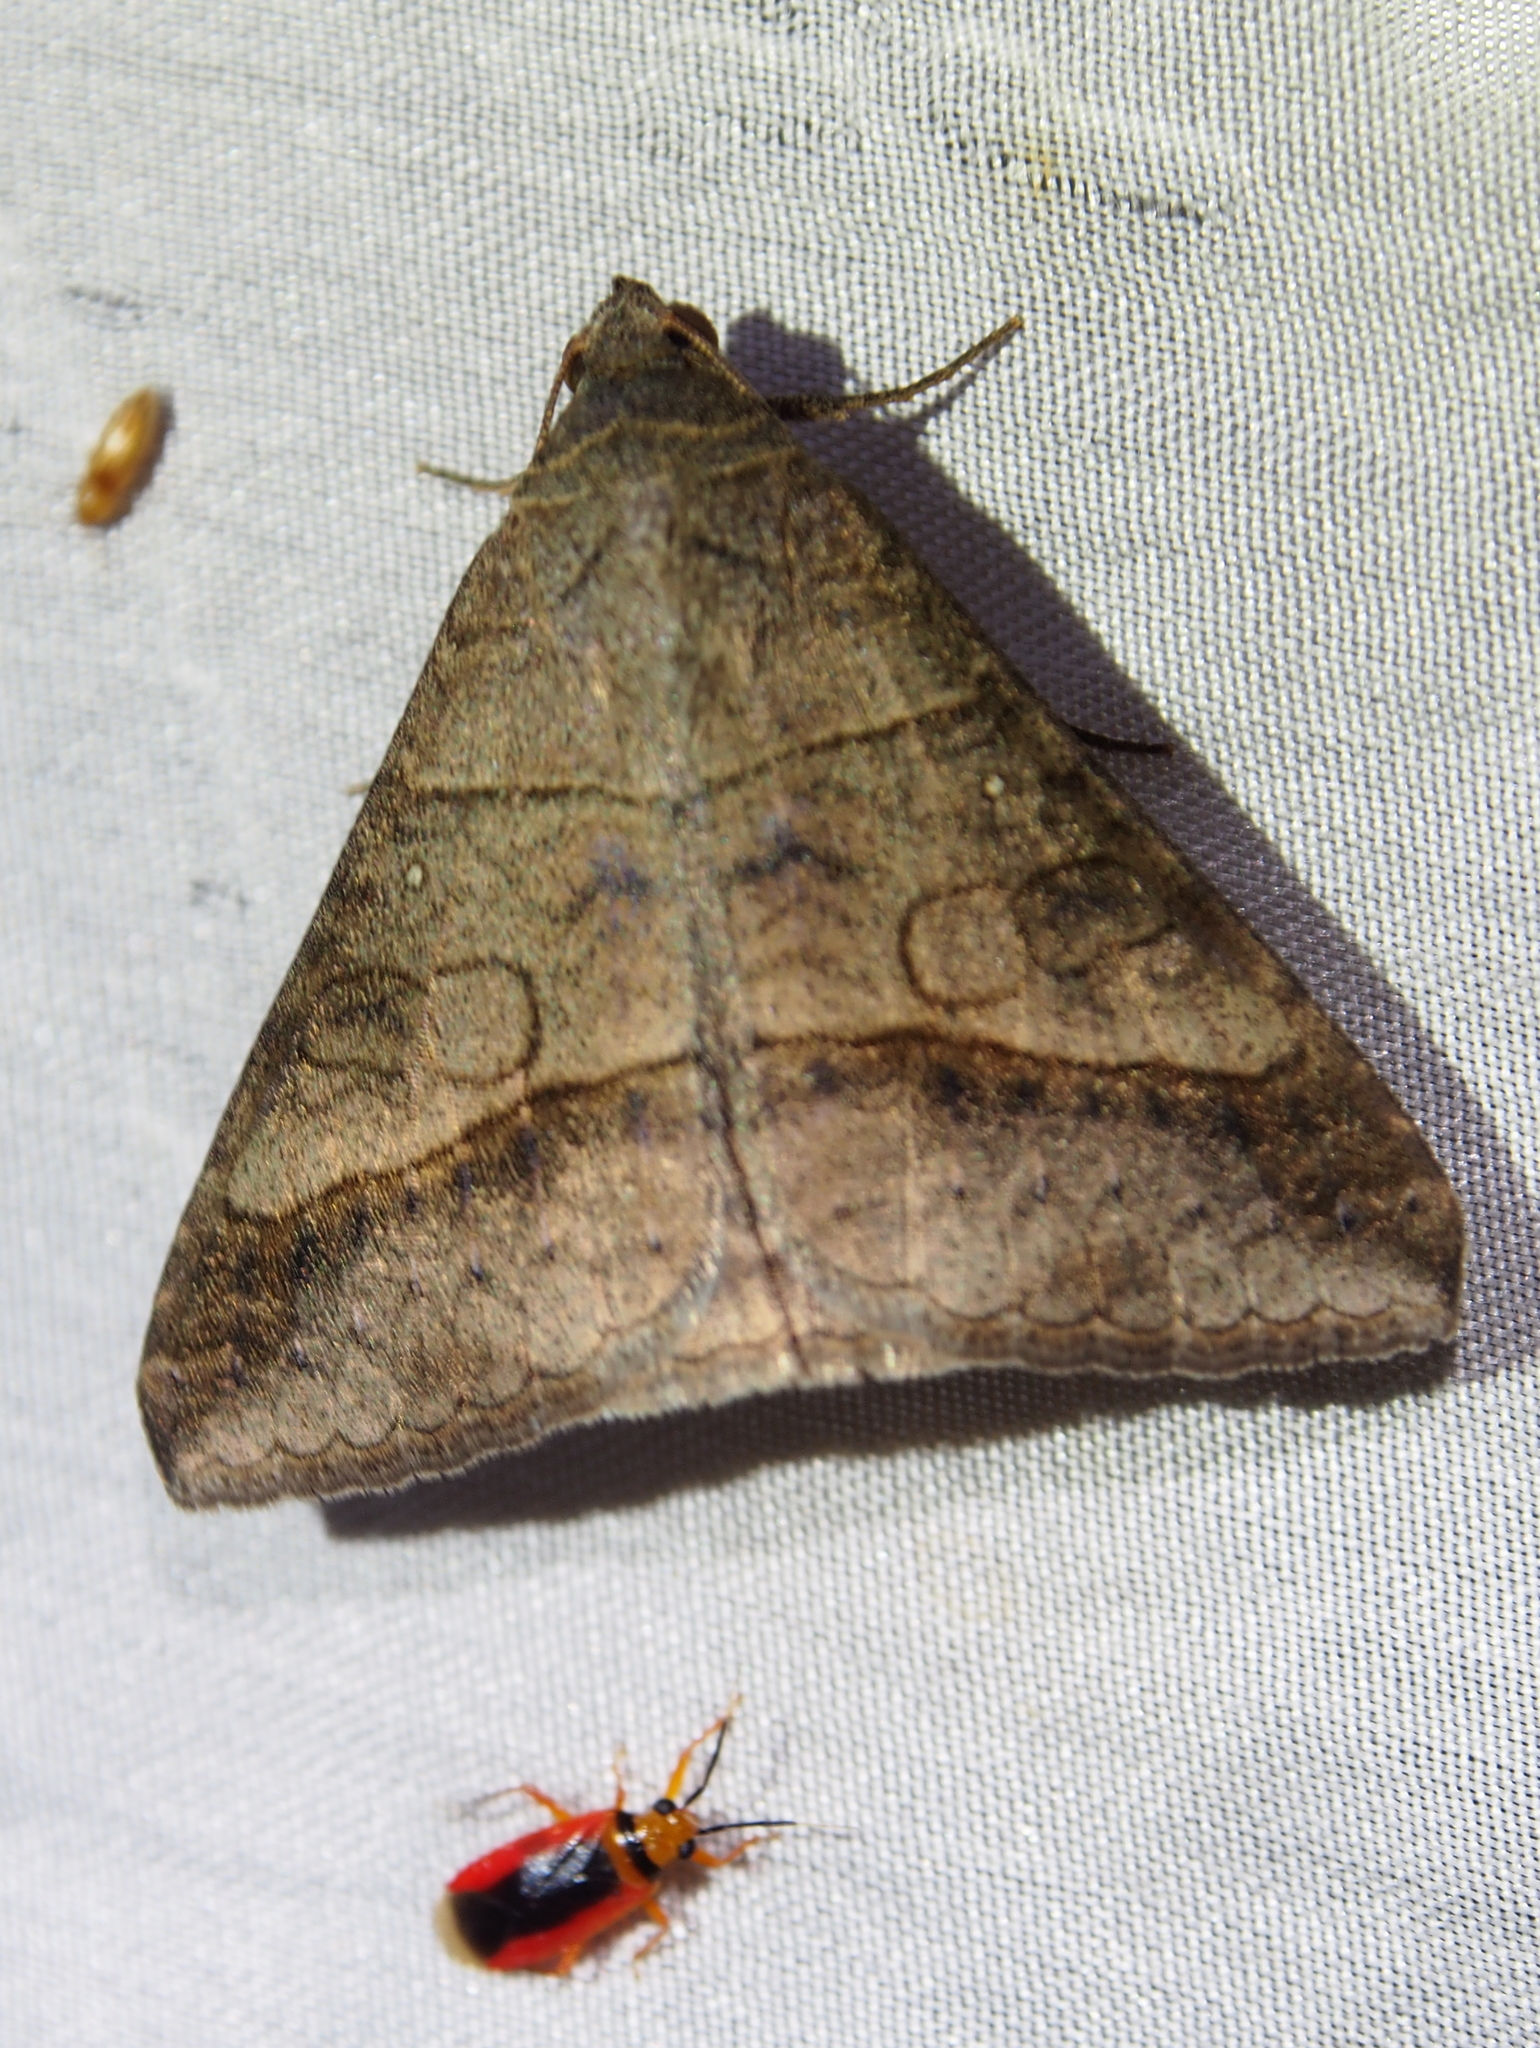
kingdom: Animalia
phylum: Arthropoda
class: Insecta
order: Lepidoptera
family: Erebidae
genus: Mocis
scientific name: Mocis latipes
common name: Striped grass looper
